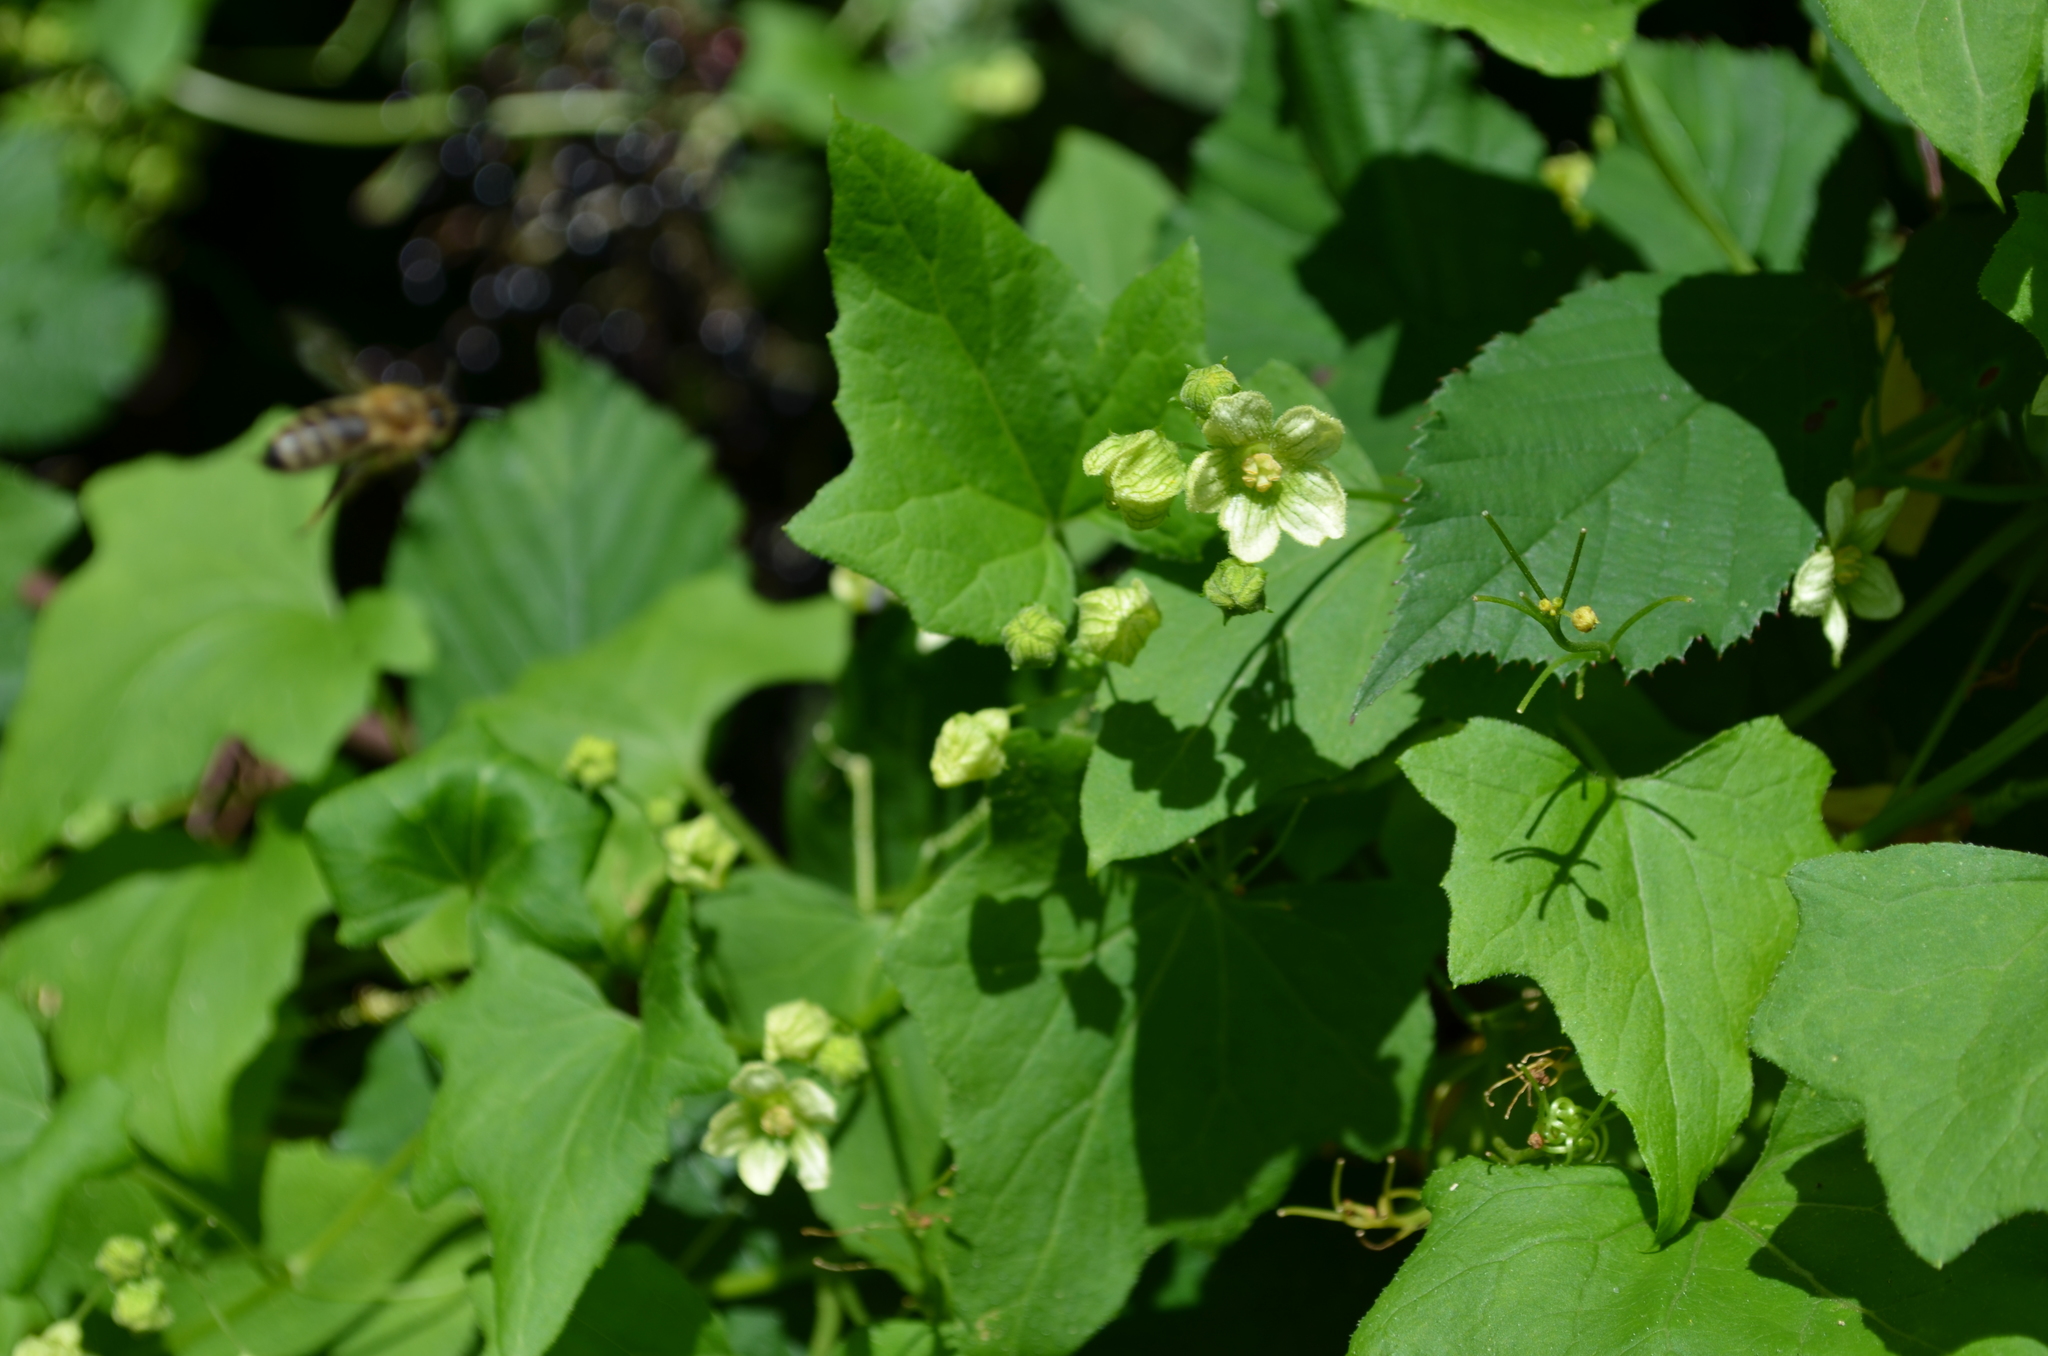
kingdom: Plantae
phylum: Tracheophyta
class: Magnoliopsida
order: Cucurbitales
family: Cucurbitaceae
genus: Bryonia
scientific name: Bryonia cretica
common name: Cretan bryony
